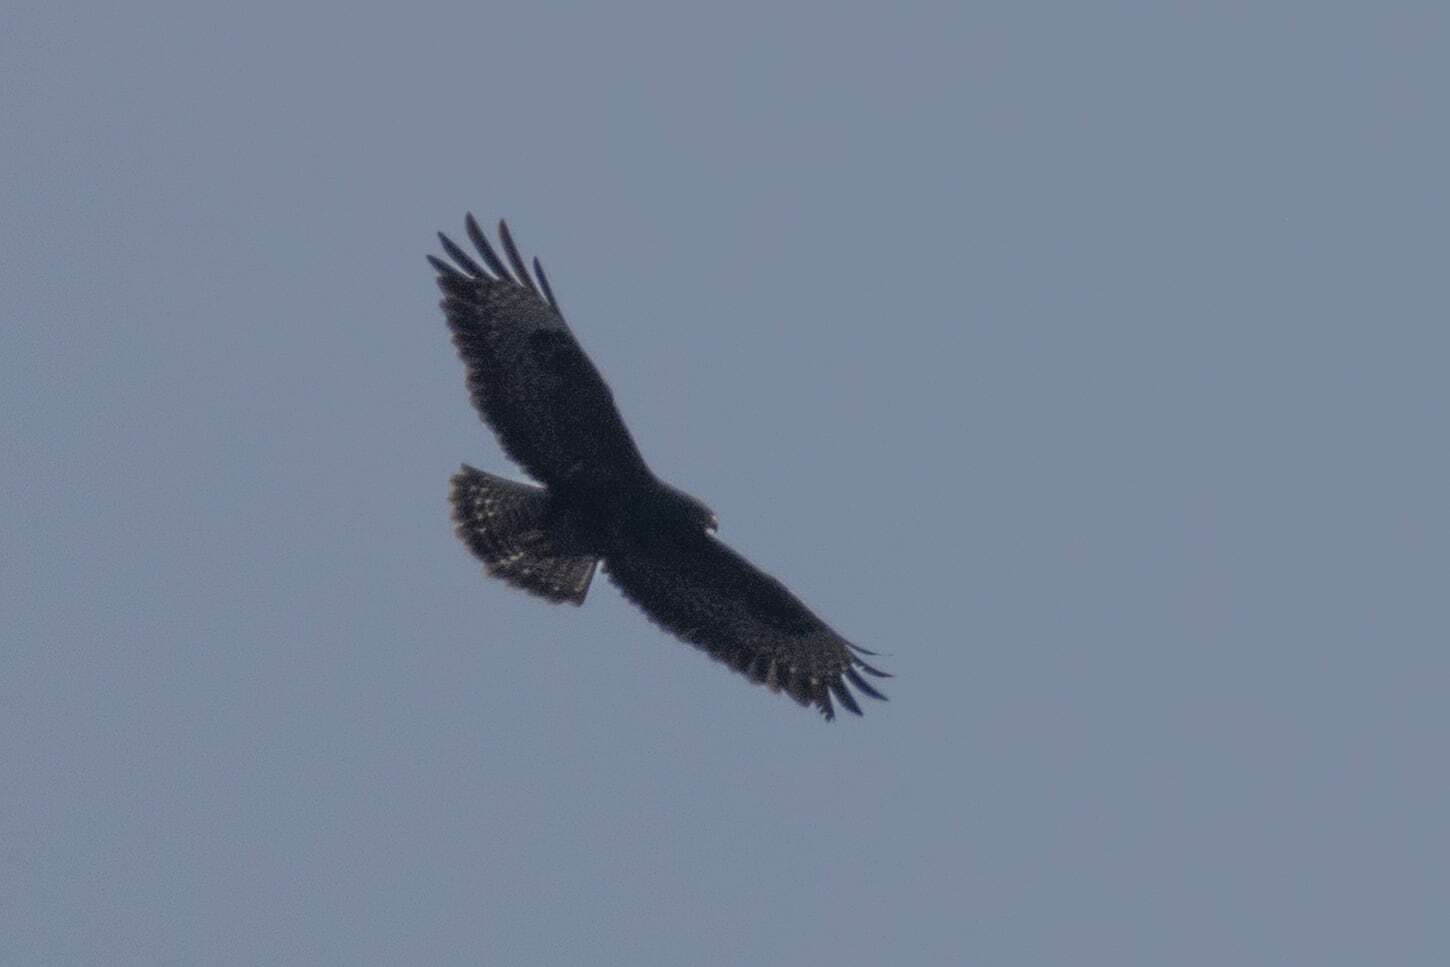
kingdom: Animalia
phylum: Chordata
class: Aves
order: Accipitriformes
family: Accipitridae
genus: Buteo
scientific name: Buteo buteo
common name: Common buzzard
